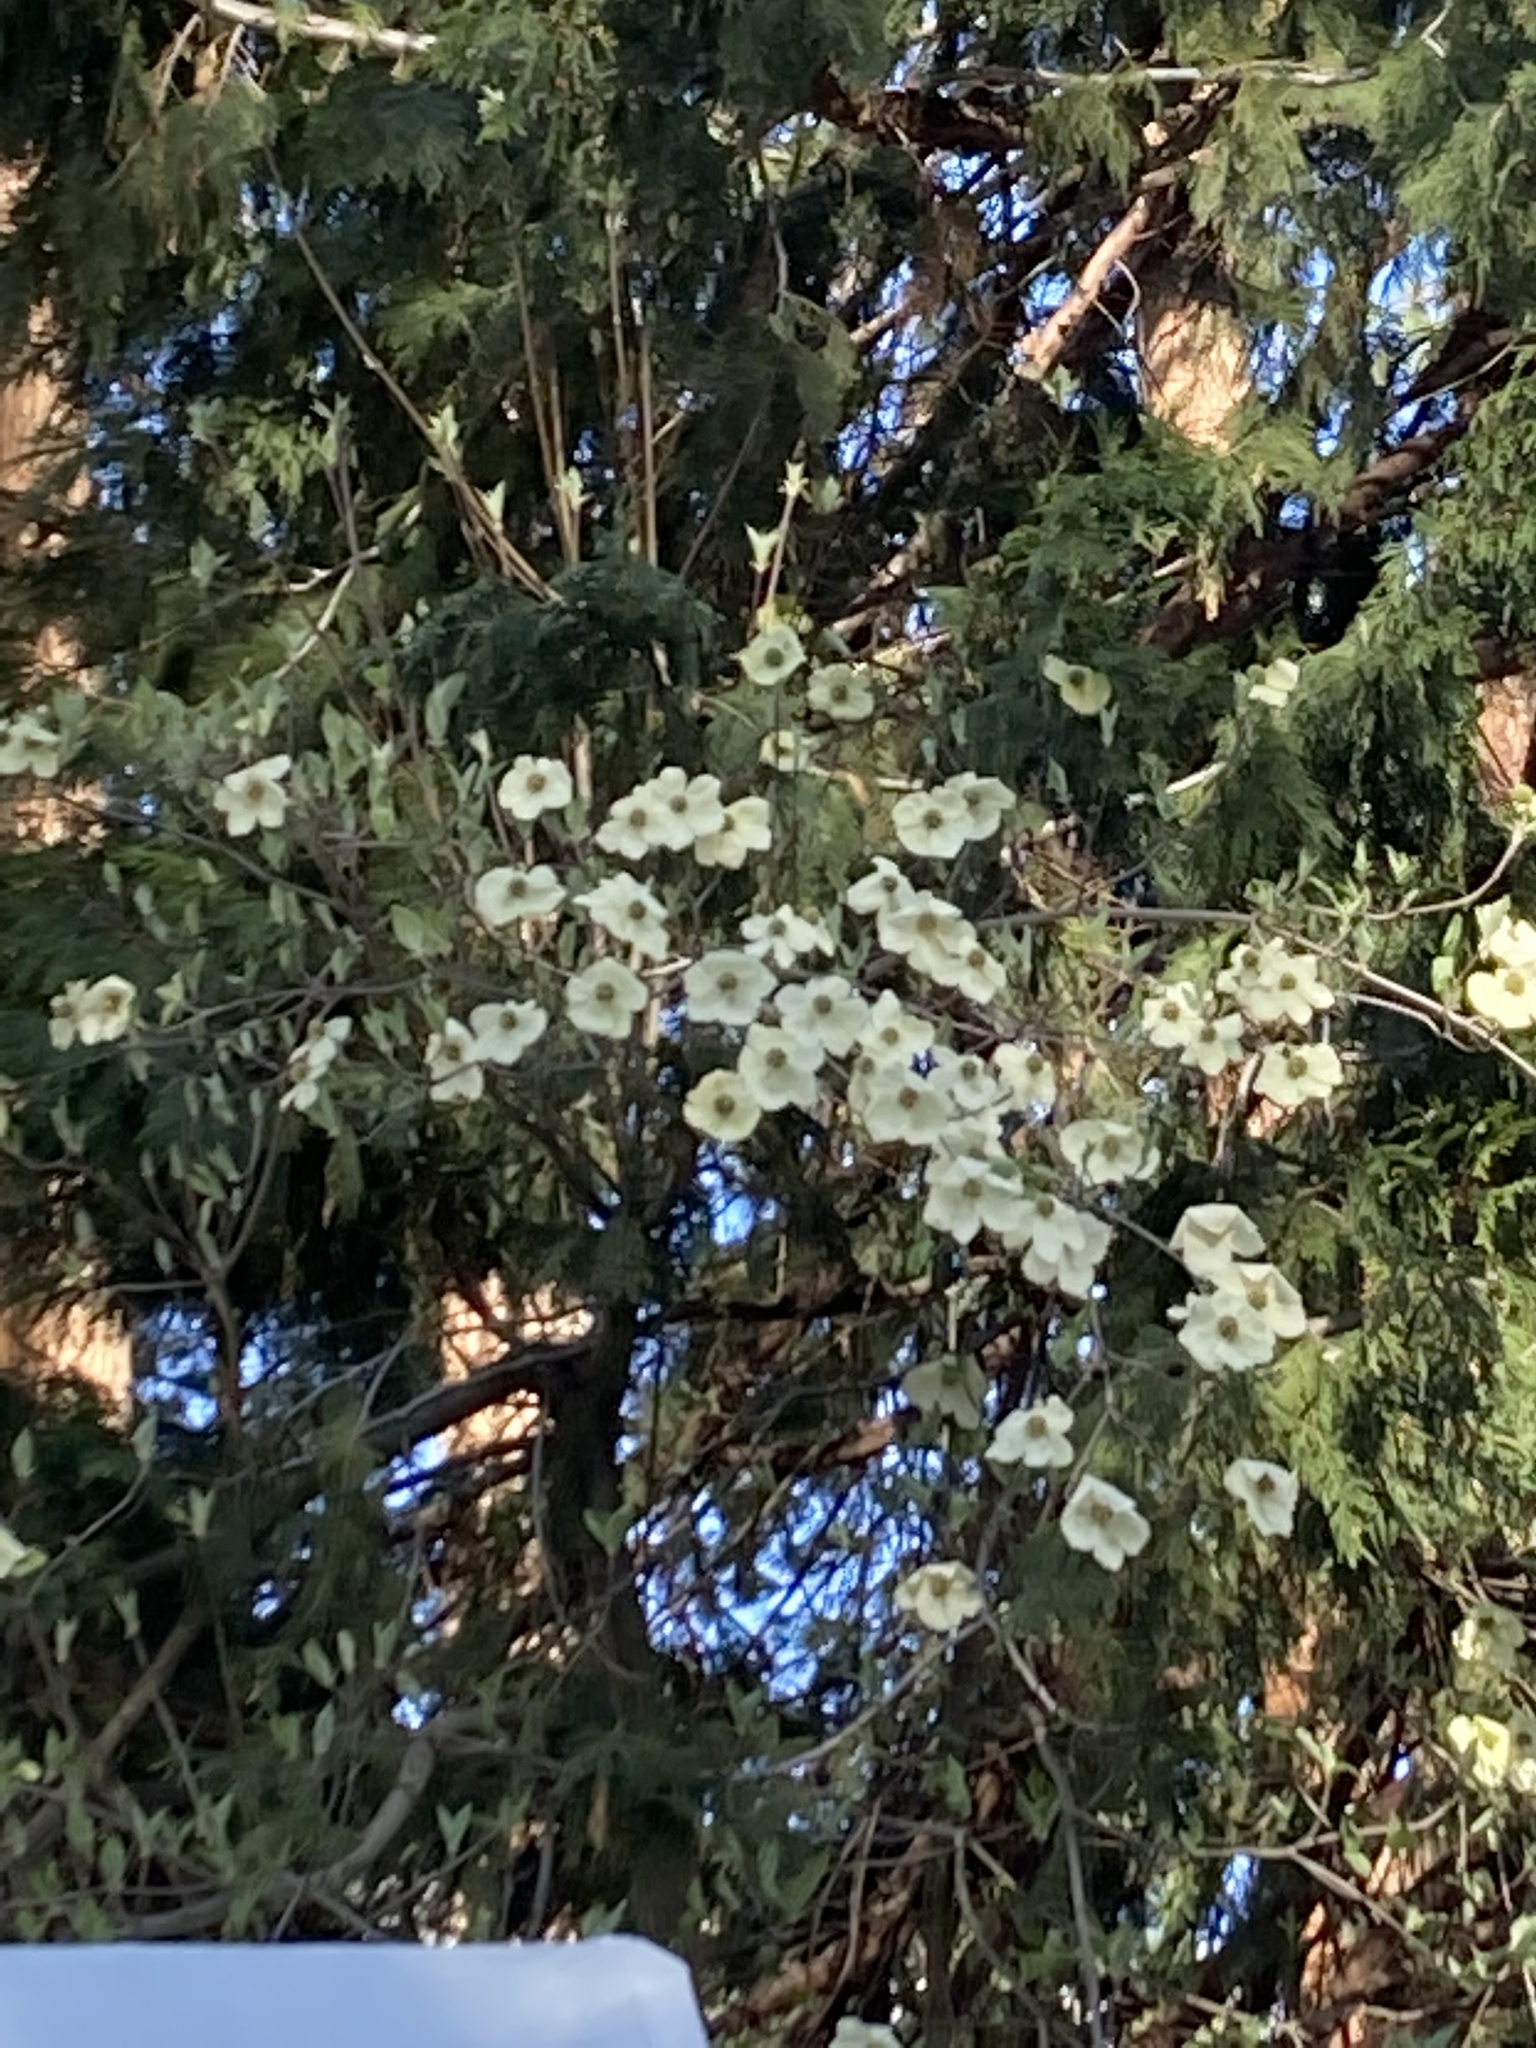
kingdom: Plantae
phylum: Tracheophyta
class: Magnoliopsida
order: Cornales
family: Cornaceae
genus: Cornus
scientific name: Cornus nuttallii
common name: Pacific dogwood
